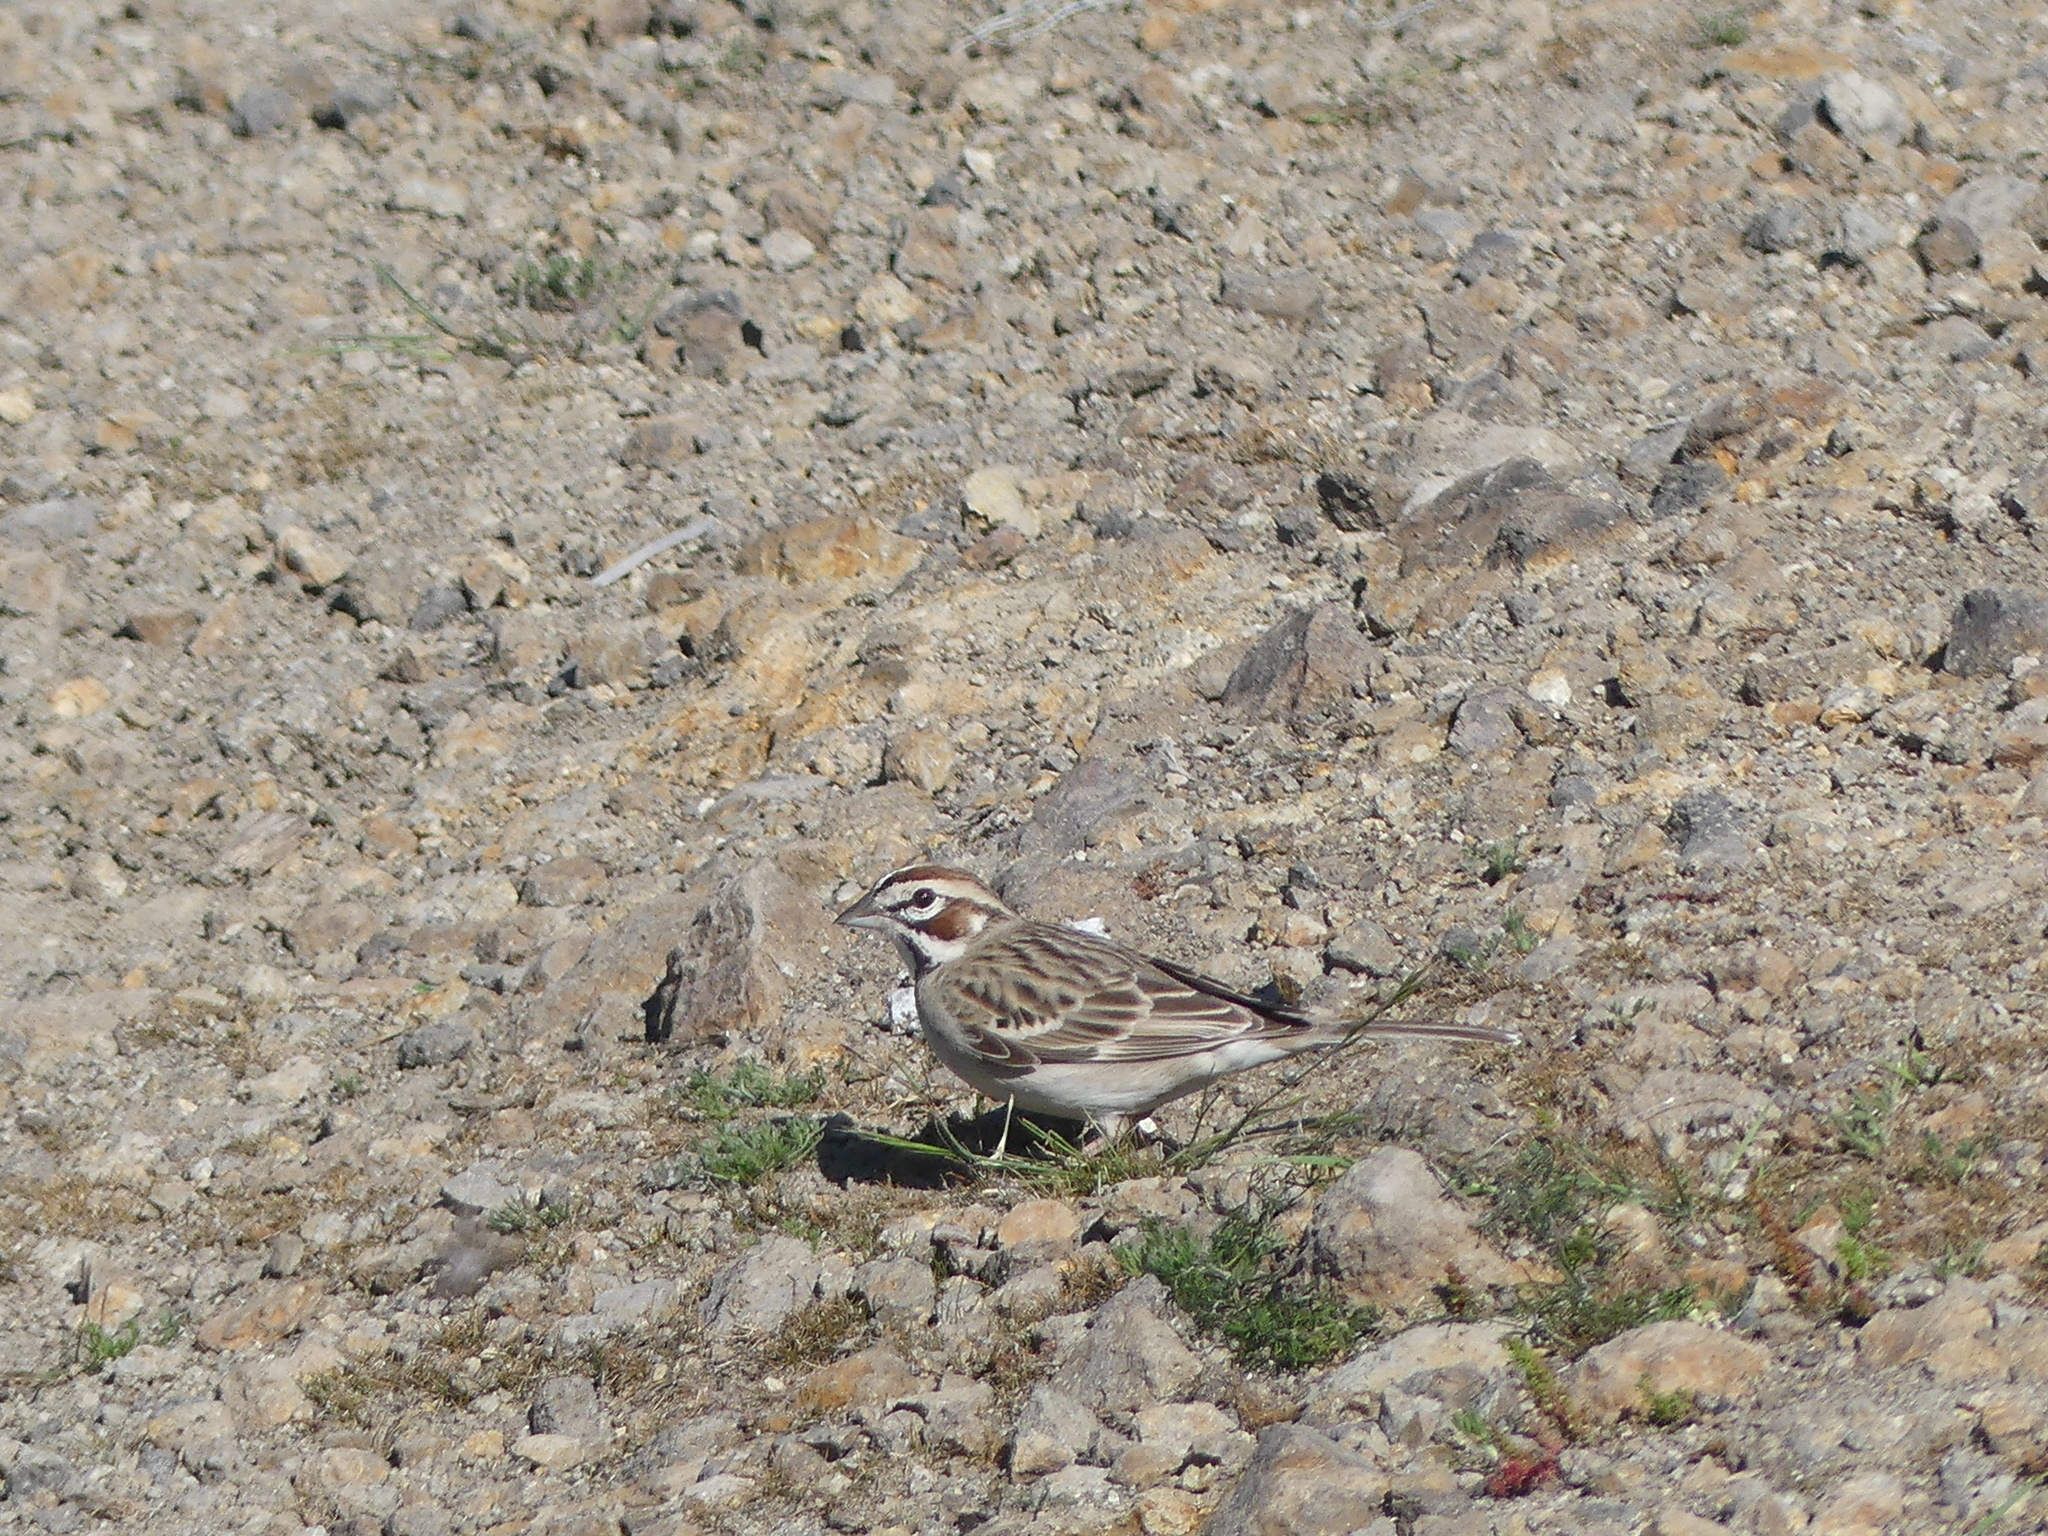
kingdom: Animalia
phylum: Chordata
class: Aves
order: Passeriformes
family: Passerellidae
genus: Chondestes
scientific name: Chondestes grammacus
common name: Lark sparrow
